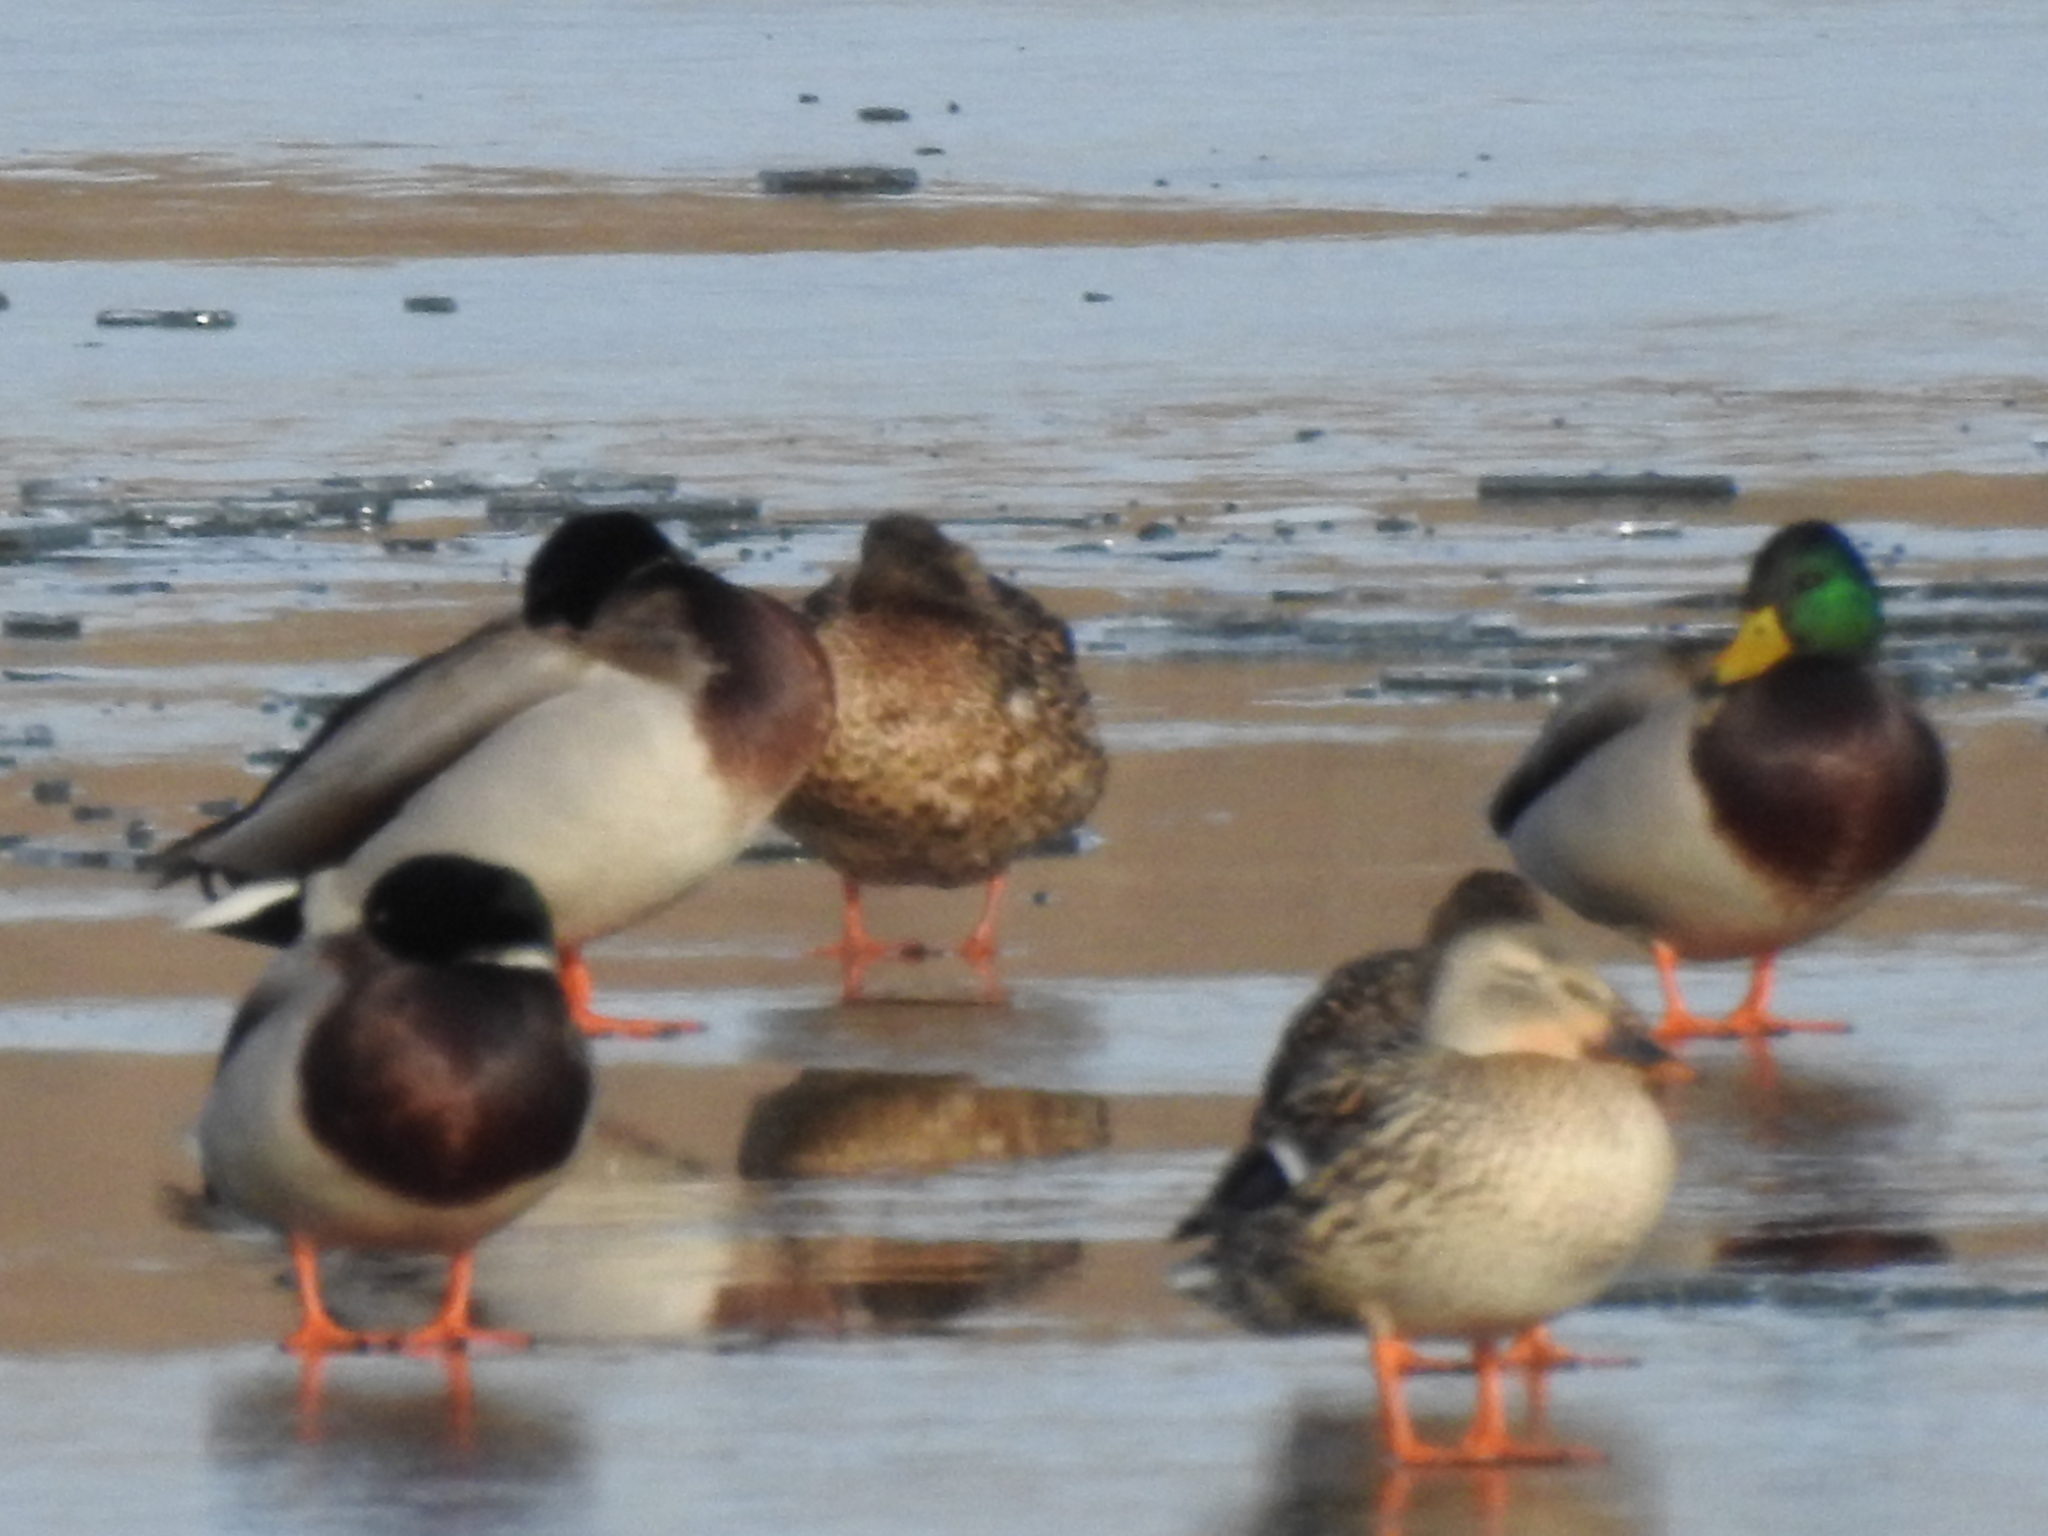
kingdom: Animalia
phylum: Chordata
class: Aves
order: Anseriformes
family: Anatidae
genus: Anas
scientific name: Anas platyrhynchos
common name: Mallard
